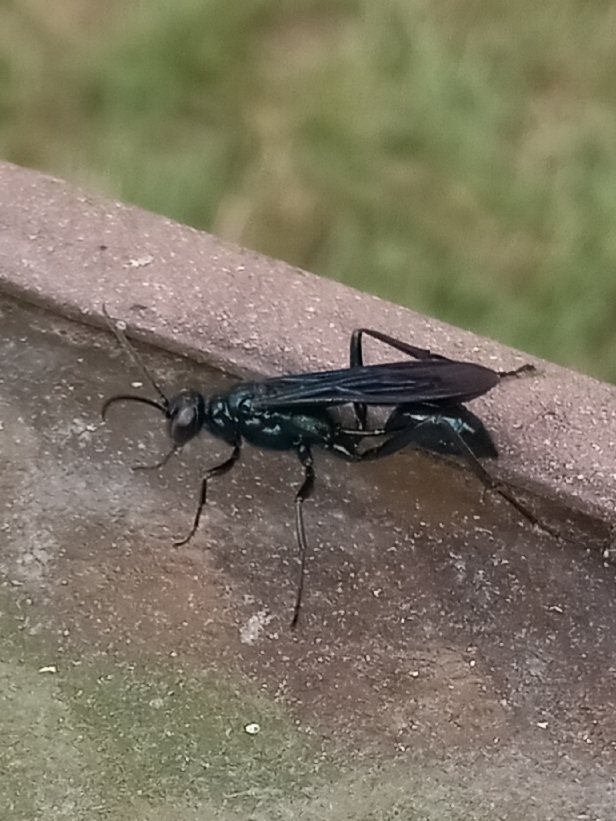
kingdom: Animalia
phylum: Arthropoda
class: Insecta
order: Hymenoptera
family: Sphecidae
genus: Chalybion
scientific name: Chalybion californicum
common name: Mud dauber
